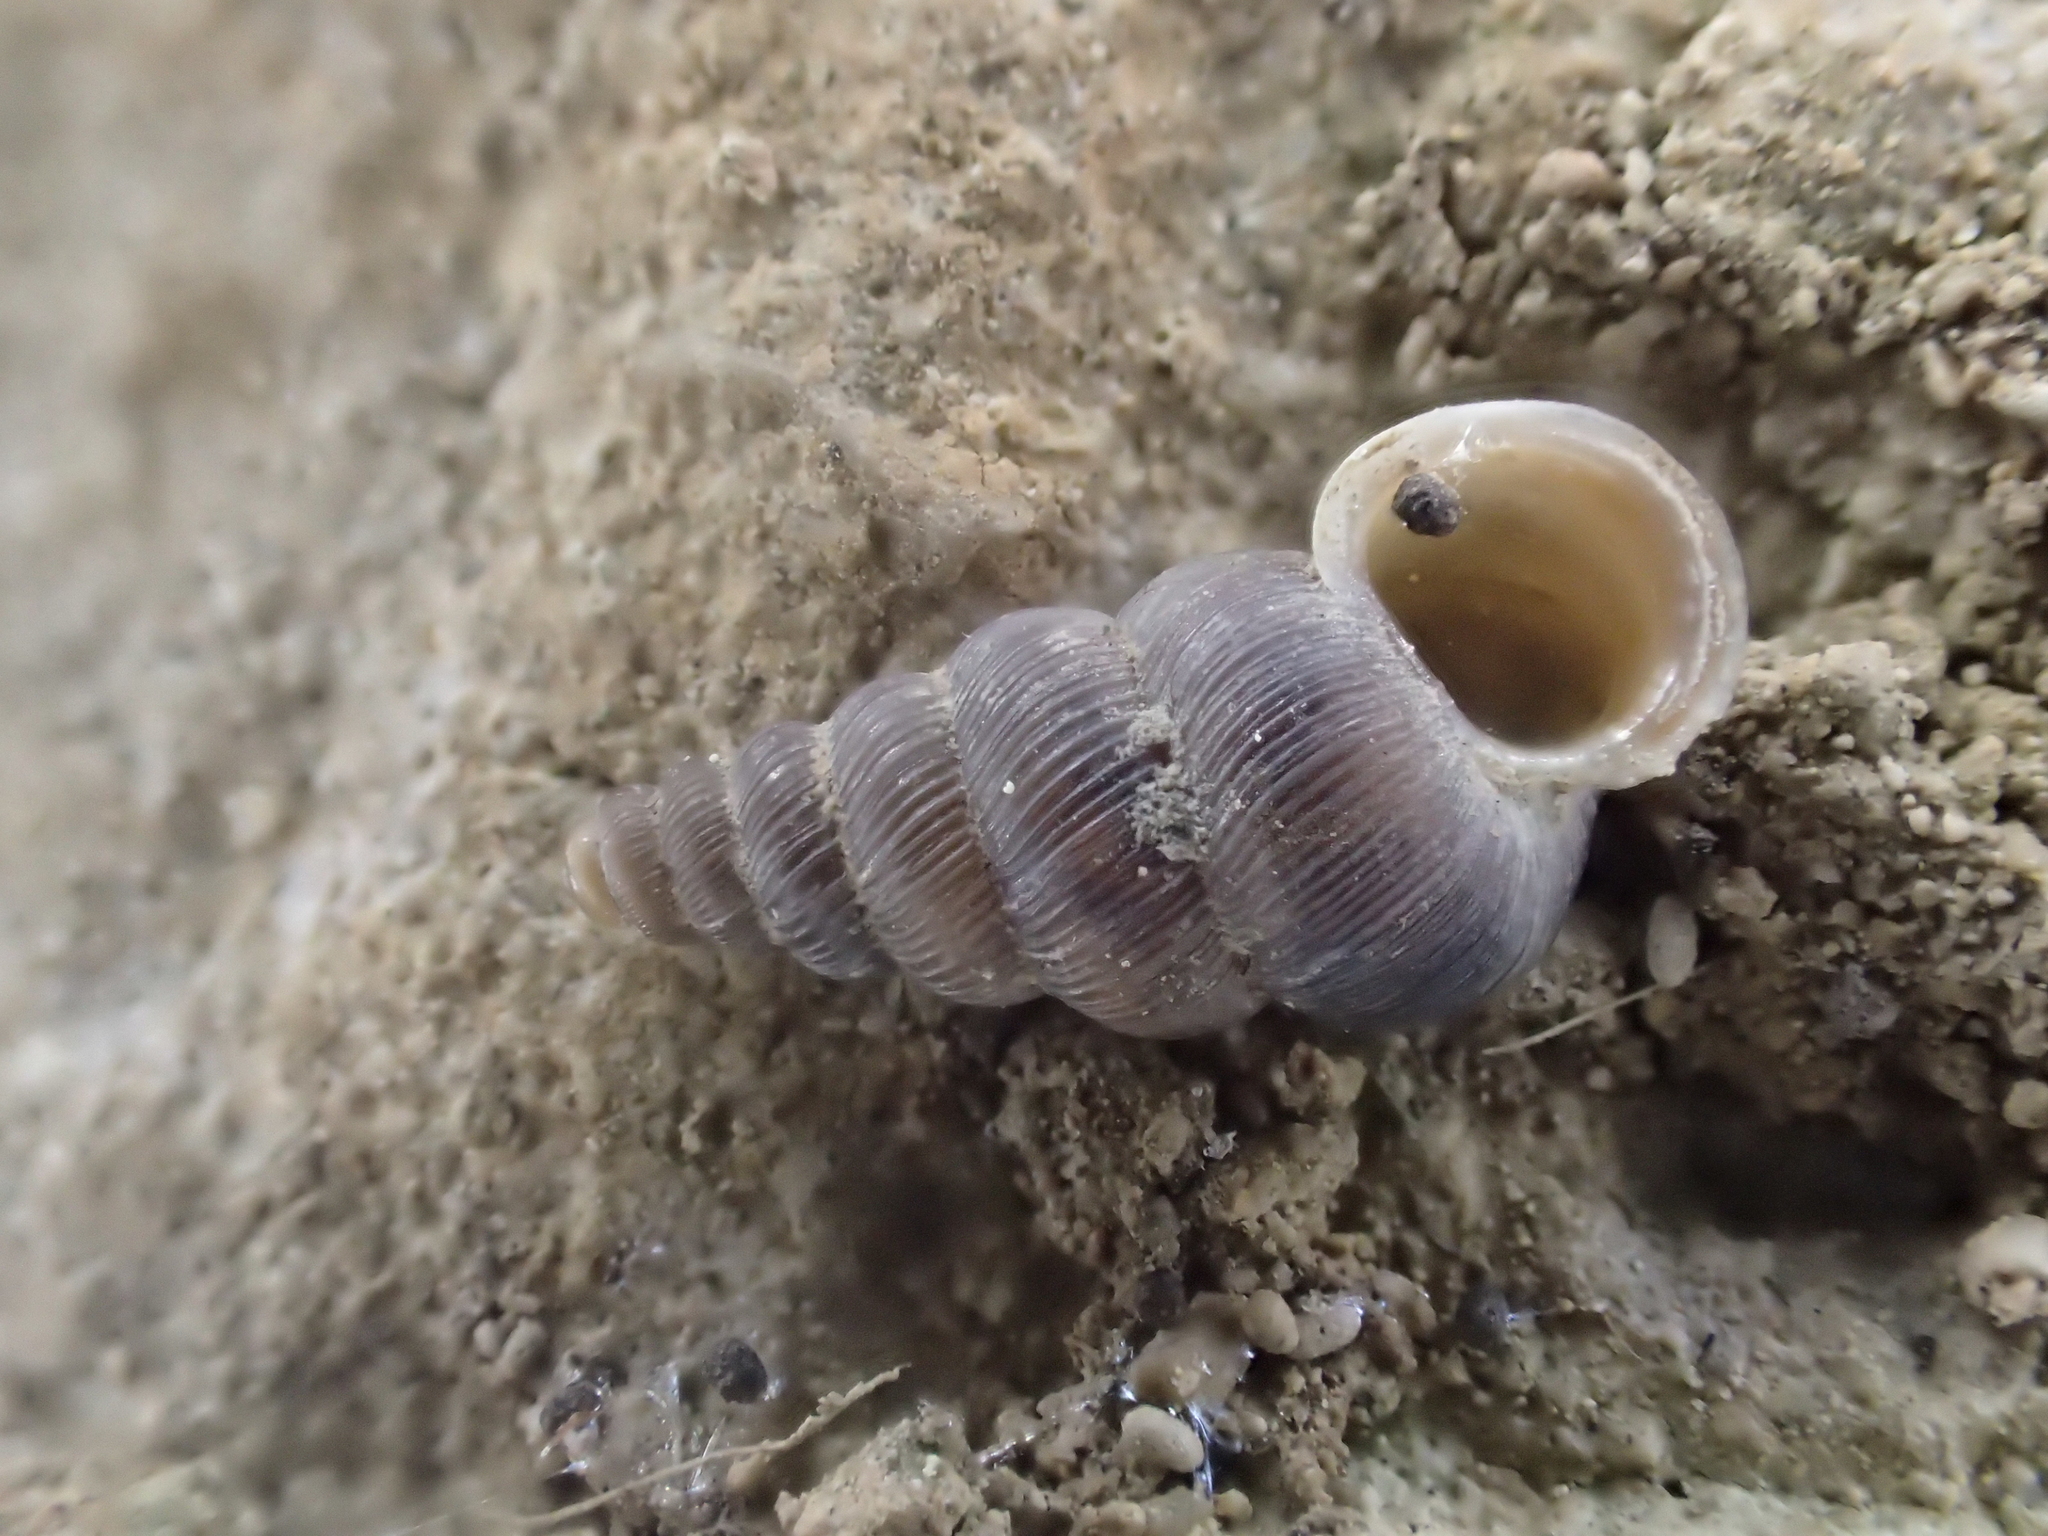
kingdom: Animalia
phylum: Mollusca
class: Gastropoda
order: Architaenioglossa
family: Cochlostomatidae
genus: Cochlostoma
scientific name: Cochlostoma patulum
